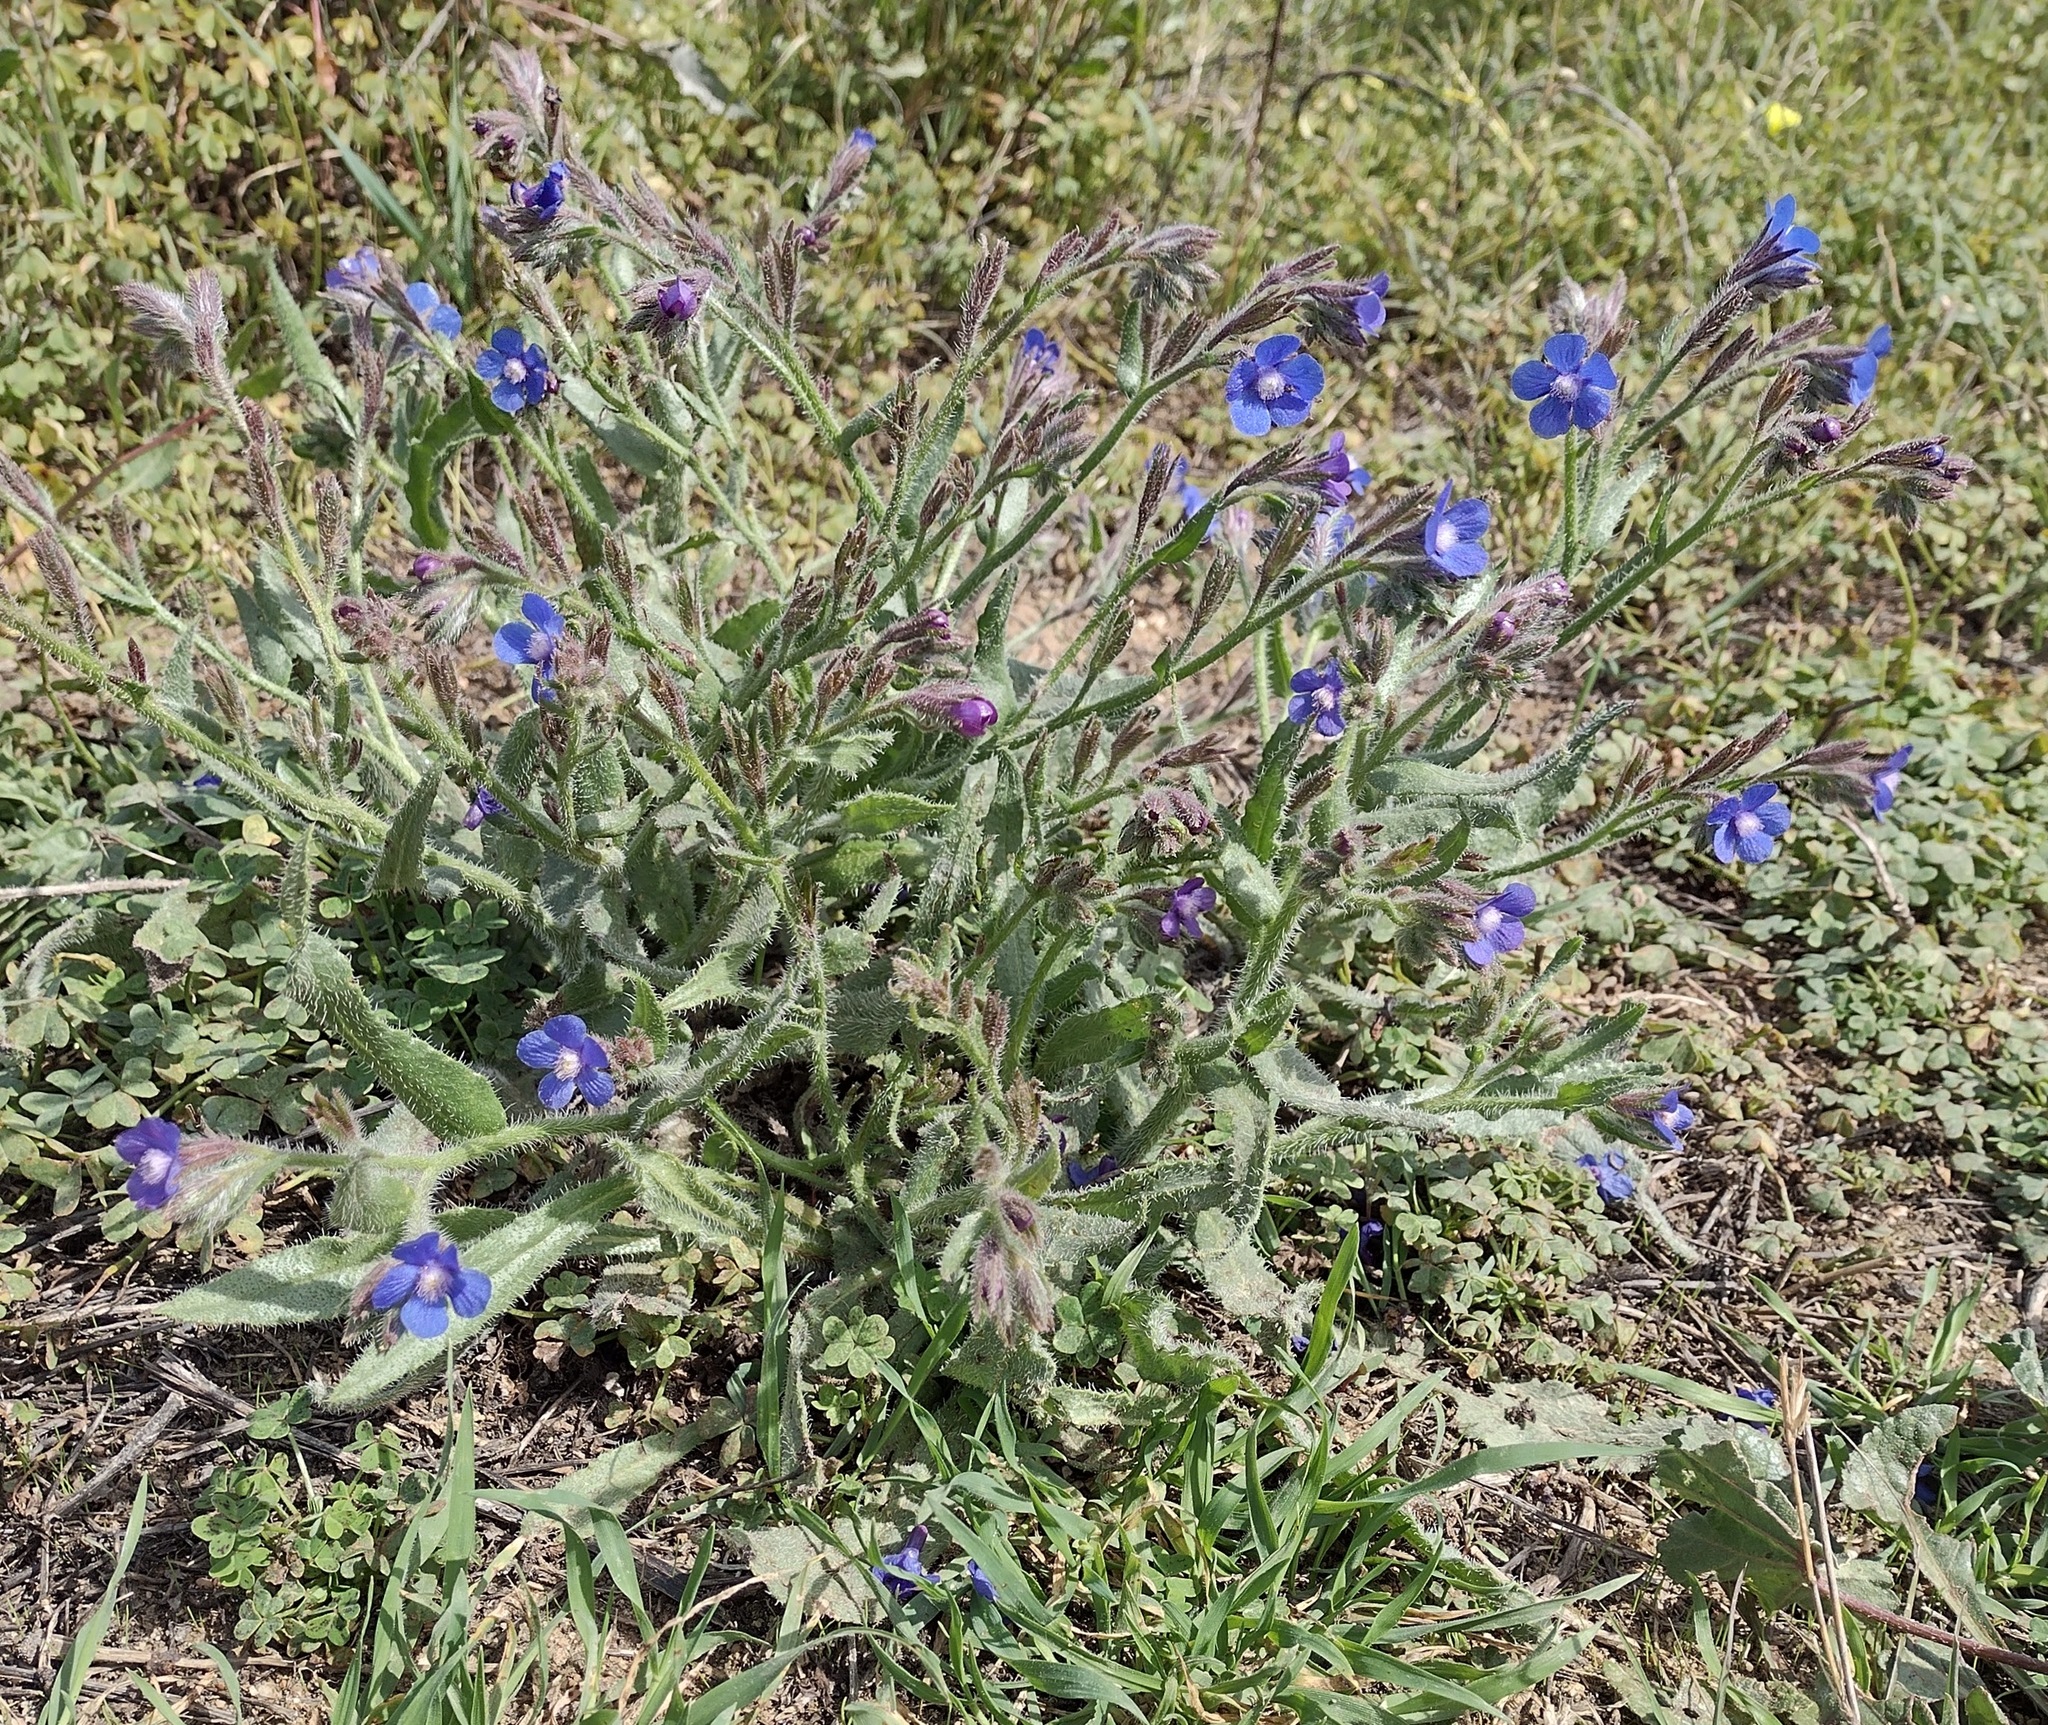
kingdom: Plantae
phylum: Tracheophyta
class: Magnoliopsida
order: Boraginales
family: Boraginaceae
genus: Anchusa
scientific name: Anchusa azurea
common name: Garden anchusa
